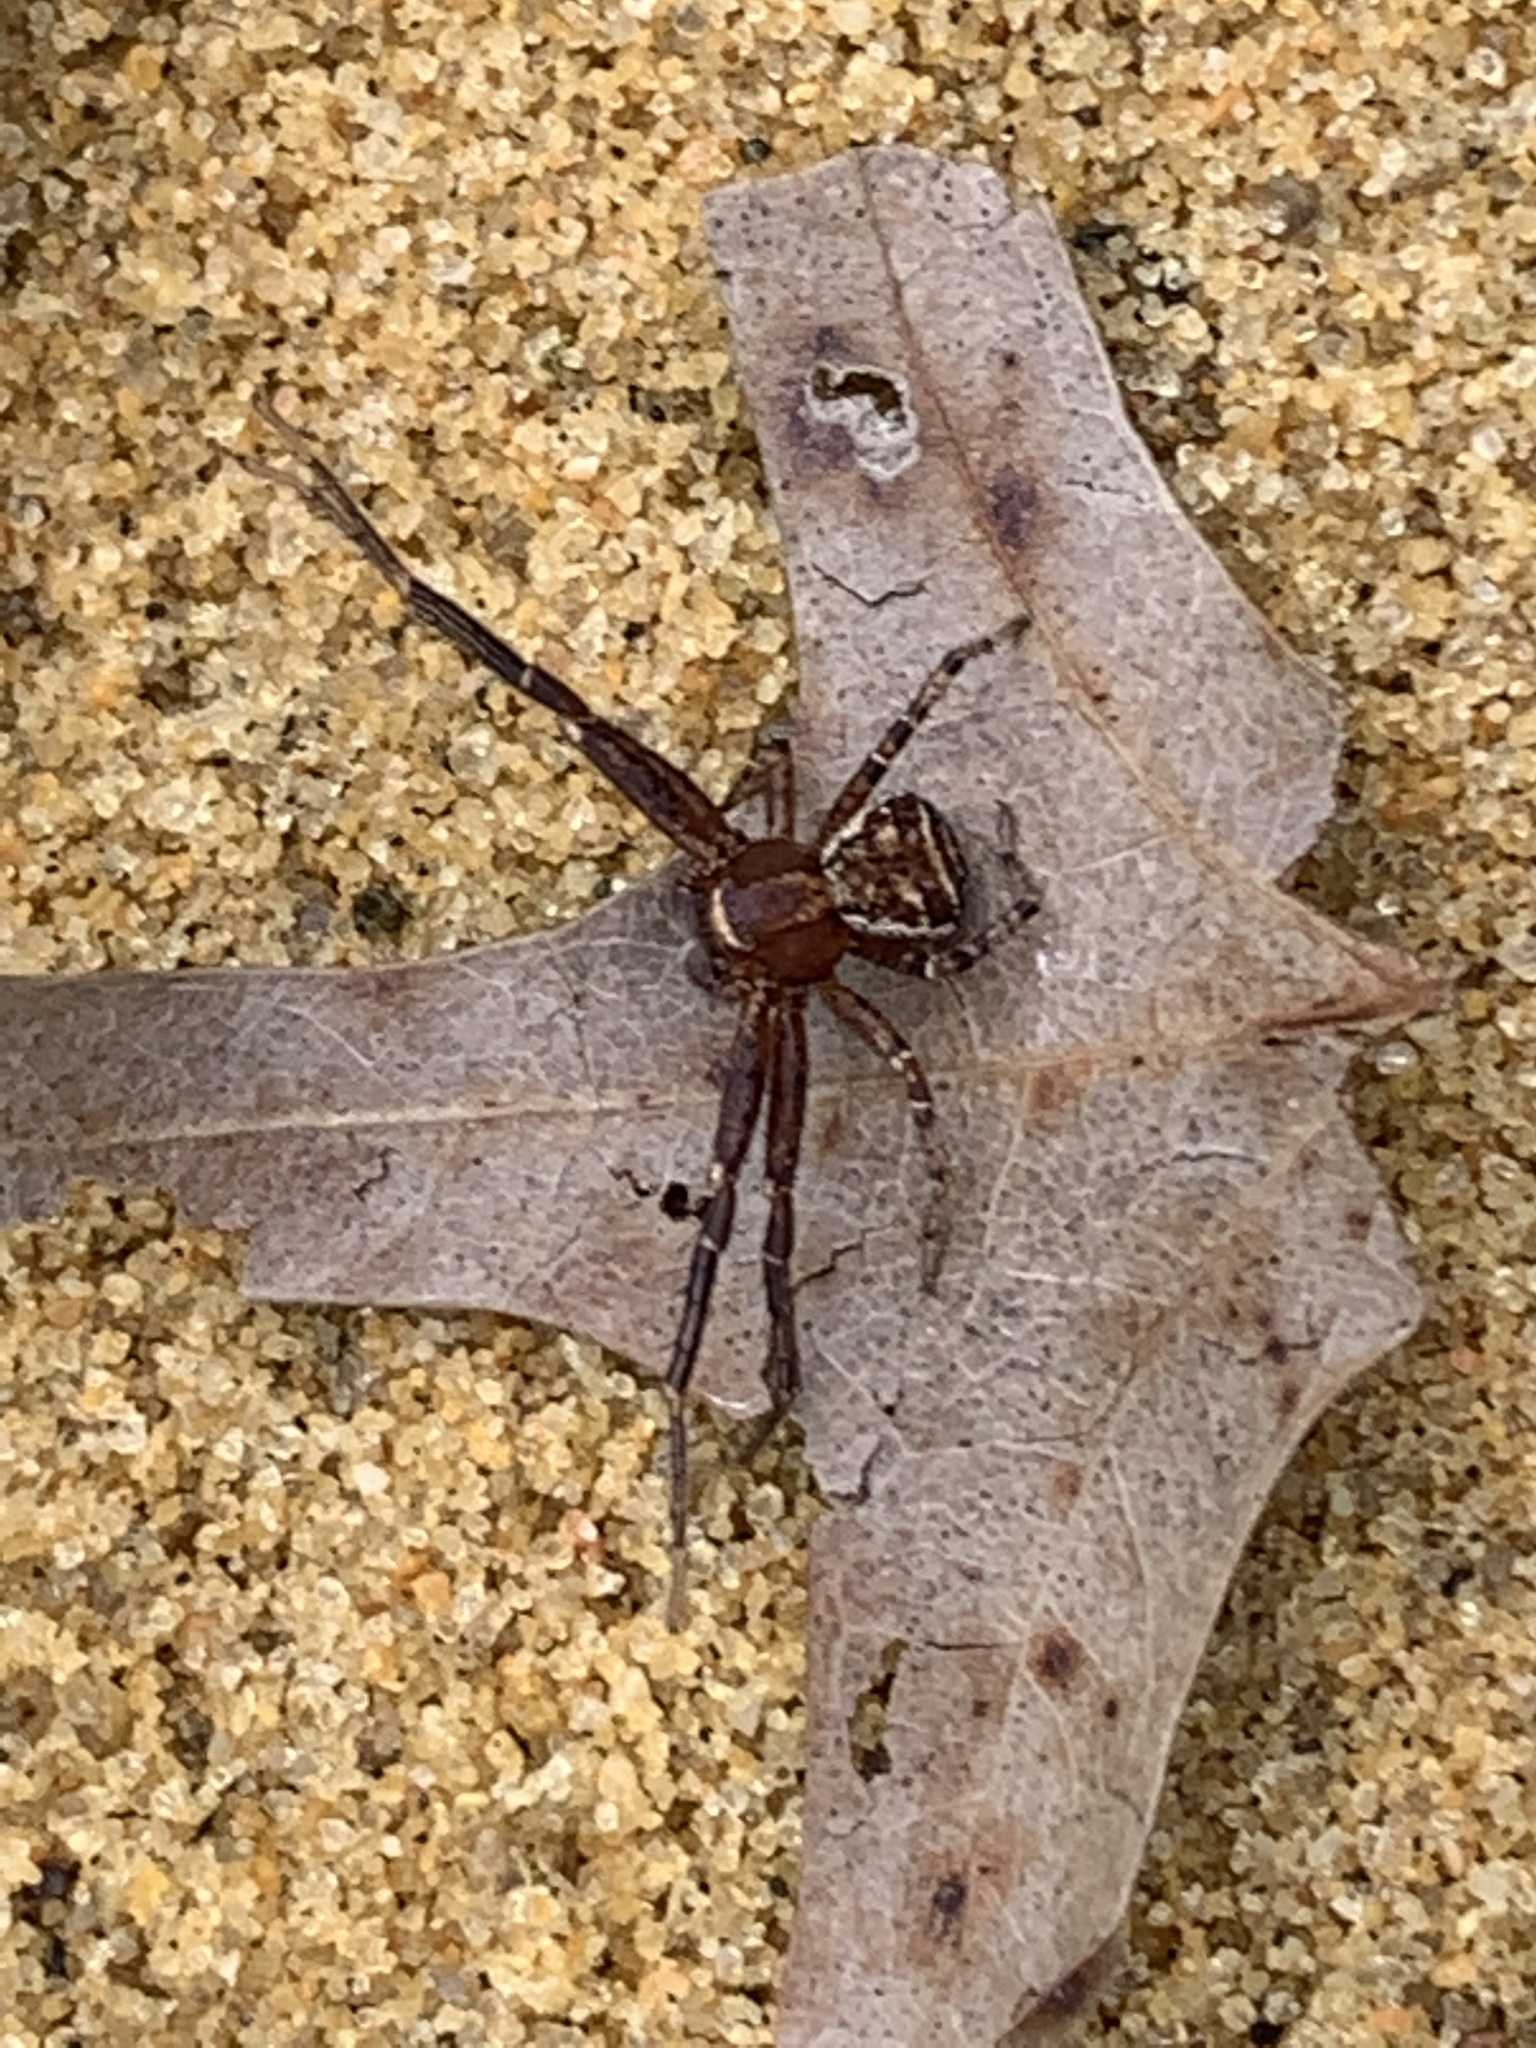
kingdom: Animalia
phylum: Arthropoda
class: Arachnida
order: Araneae
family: Thomisidae
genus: Xysticus
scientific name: Xysticus
